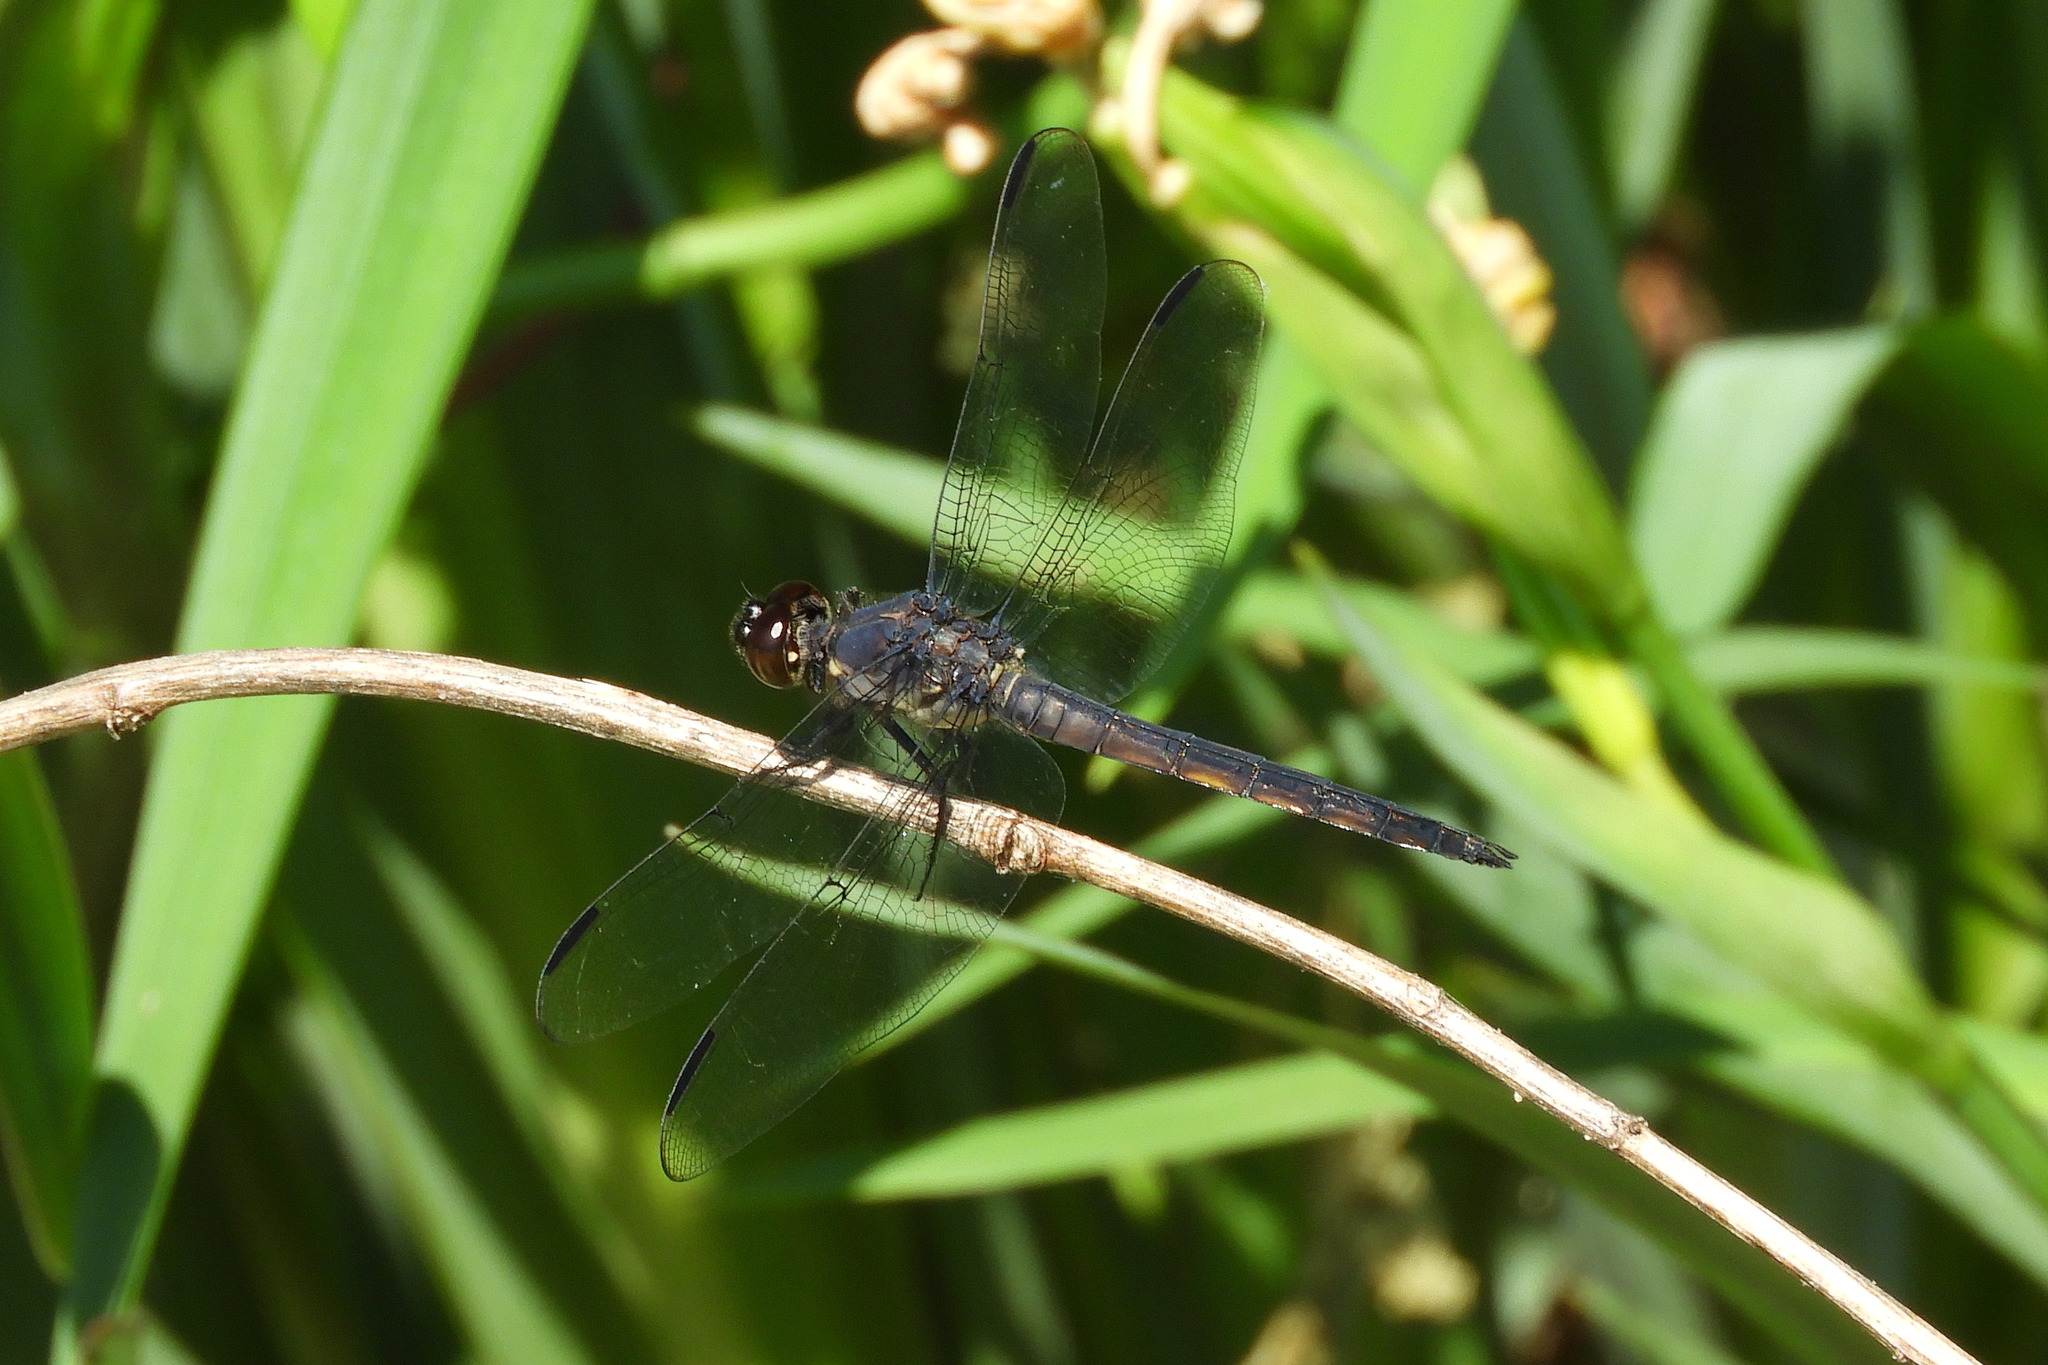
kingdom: Animalia
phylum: Arthropoda
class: Insecta
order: Odonata
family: Libellulidae
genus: Libellula
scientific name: Libellula incesta
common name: Slaty skimmer
